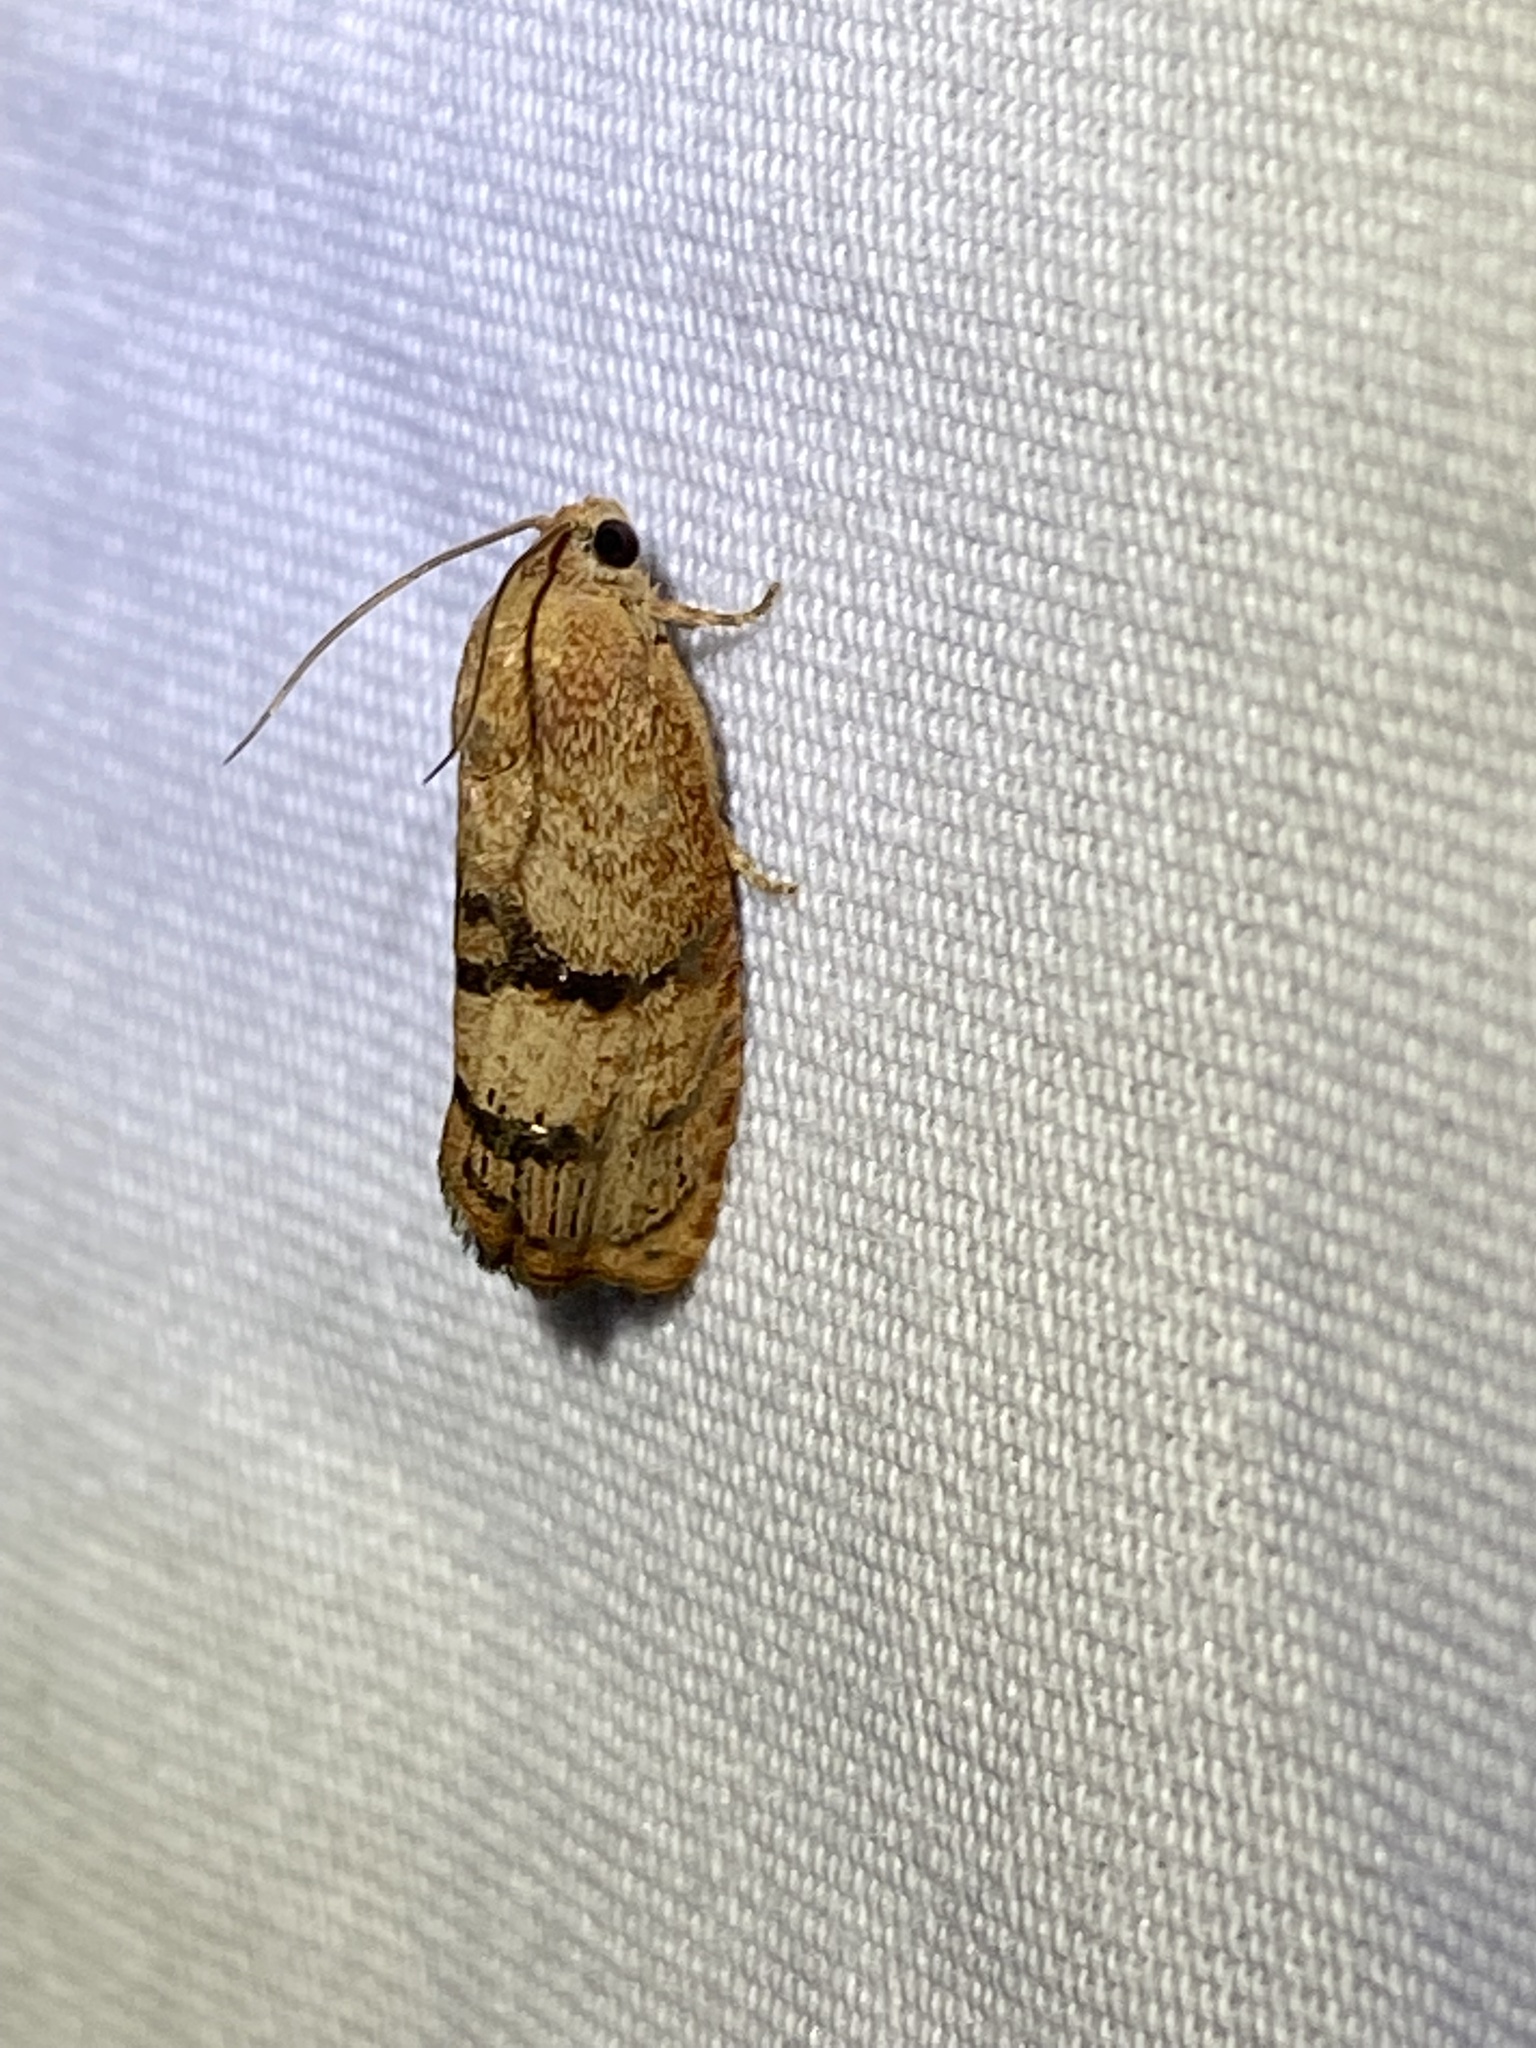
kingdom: Animalia
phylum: Arthropoda
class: Insecta
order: Lepidoptera
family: Tortricidae
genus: Cydia
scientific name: Cydia latiferreana
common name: Filbertworm moth
